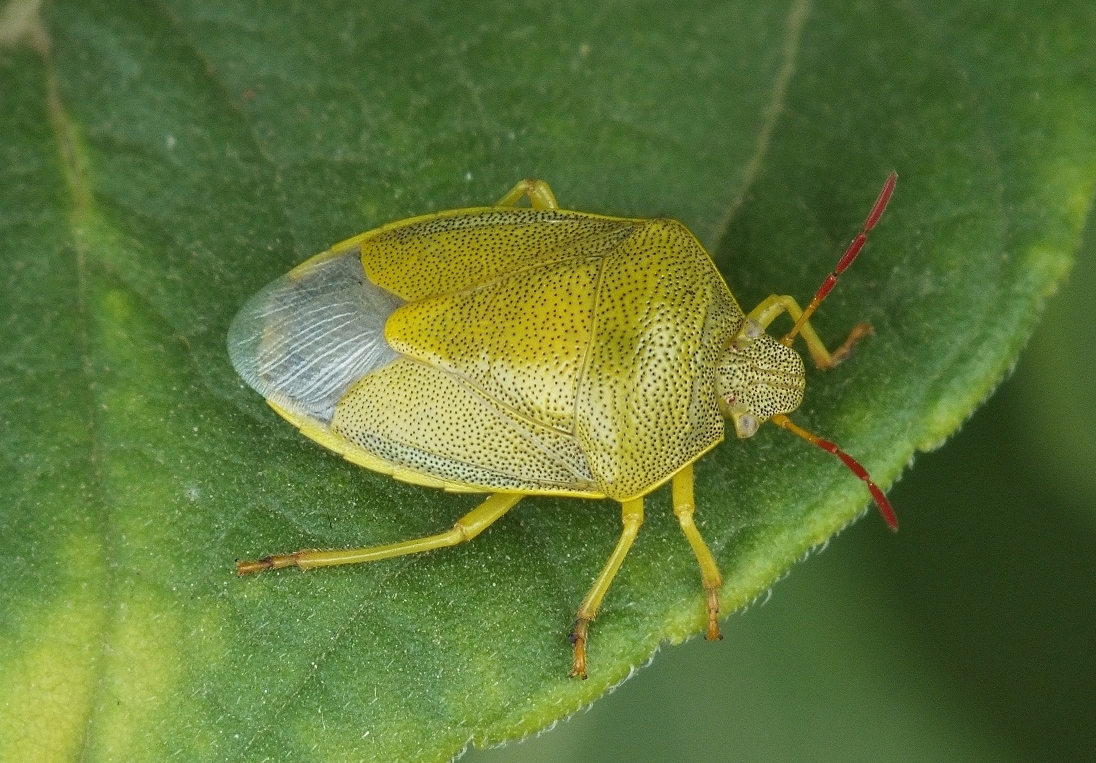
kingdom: Animalia
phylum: Arthropoda
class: Insecta
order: Hemiptera
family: Pentatomidae
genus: Piezodorus
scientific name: Piezodorus lituratus
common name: Stink bug
